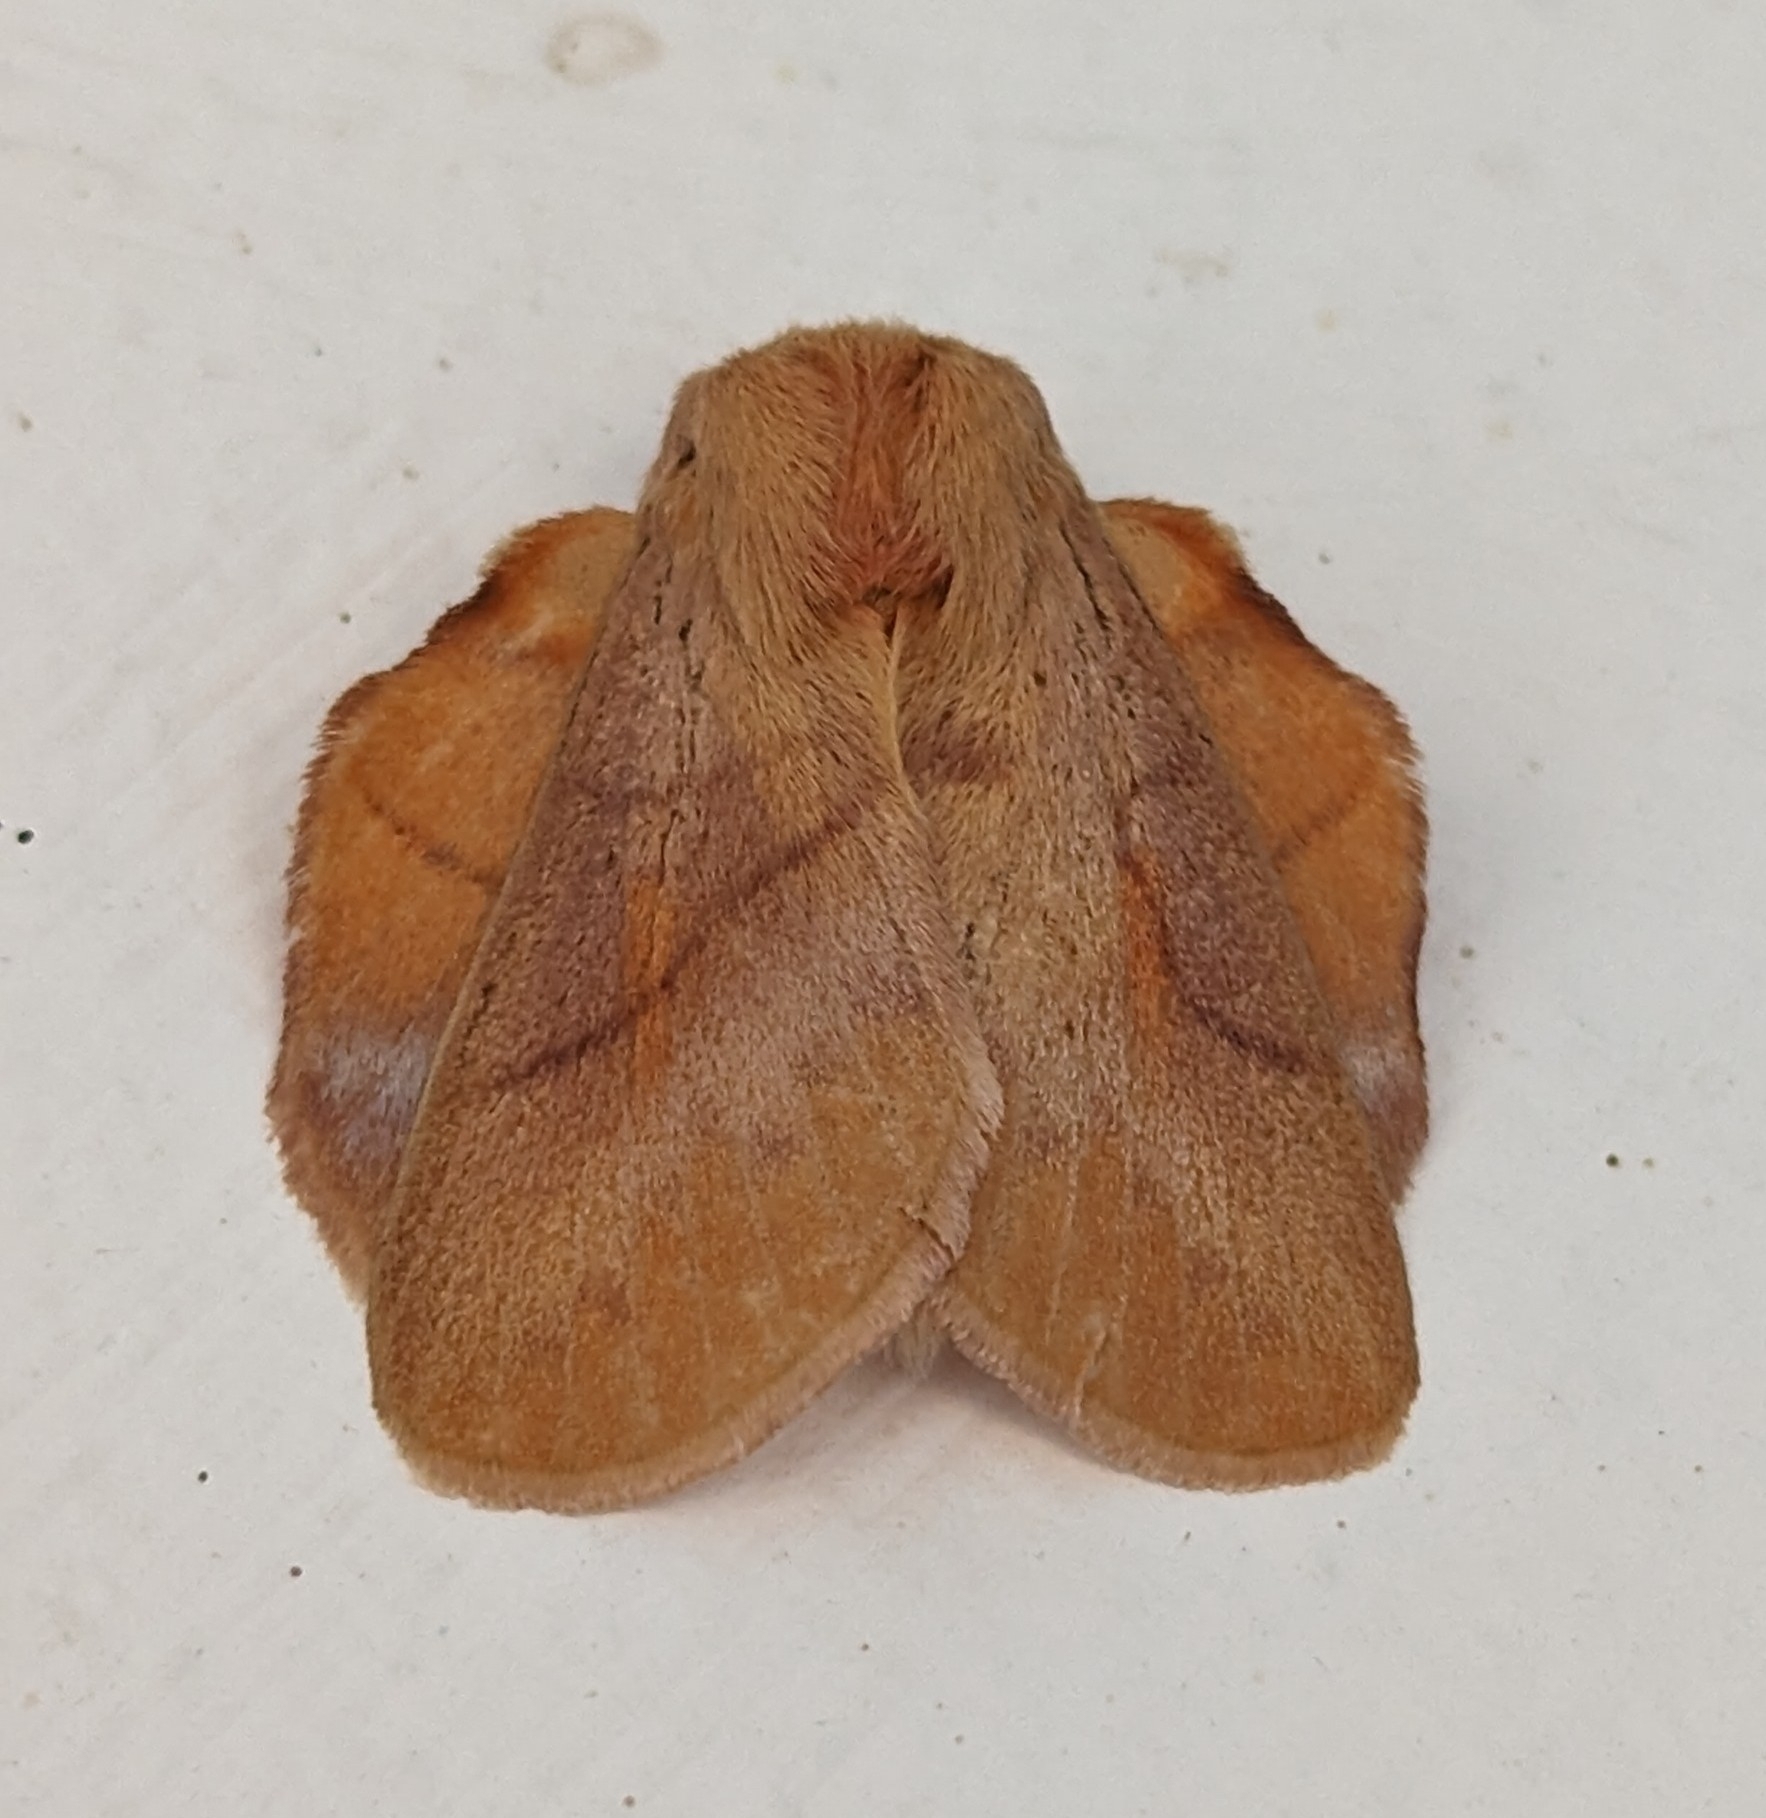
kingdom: Animalia
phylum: Arthropoda
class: Insecta
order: Lepidoptera
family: Lasiocampidae
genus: Trichopisthia
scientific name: Trichopisthia igneotincta
